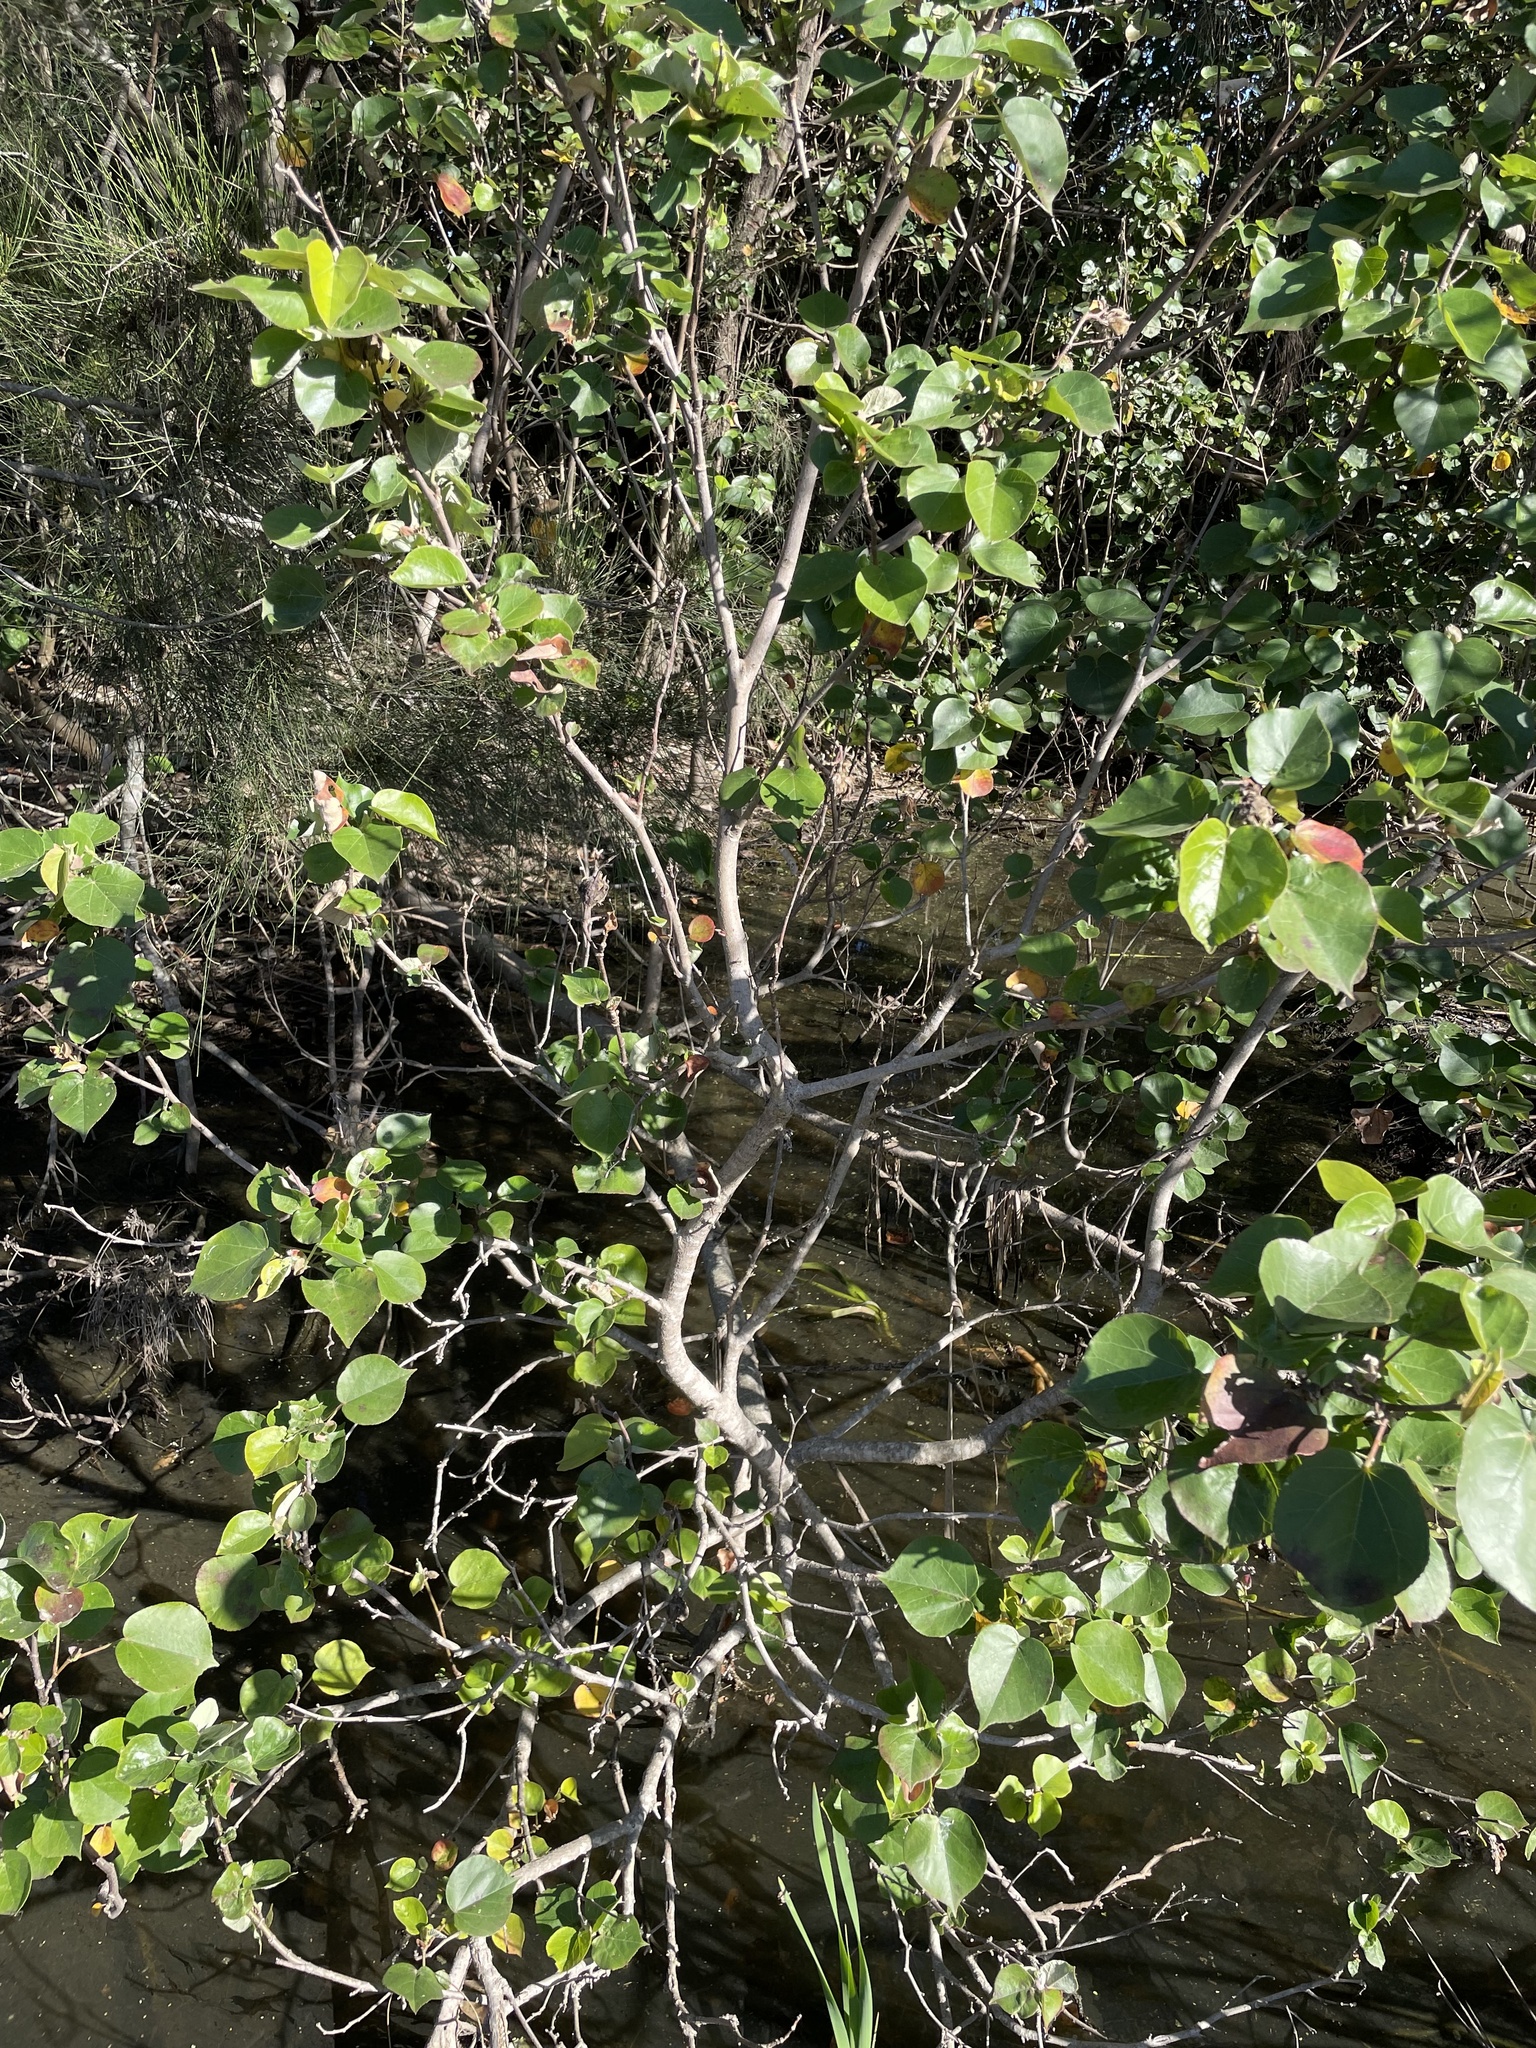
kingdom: Plantae
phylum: Tracheophyta
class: Magnoliopsida
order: Malvales
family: Malvaceae
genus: Talipariti
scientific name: Talipariti tiliaceum
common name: Sea hibiscus
